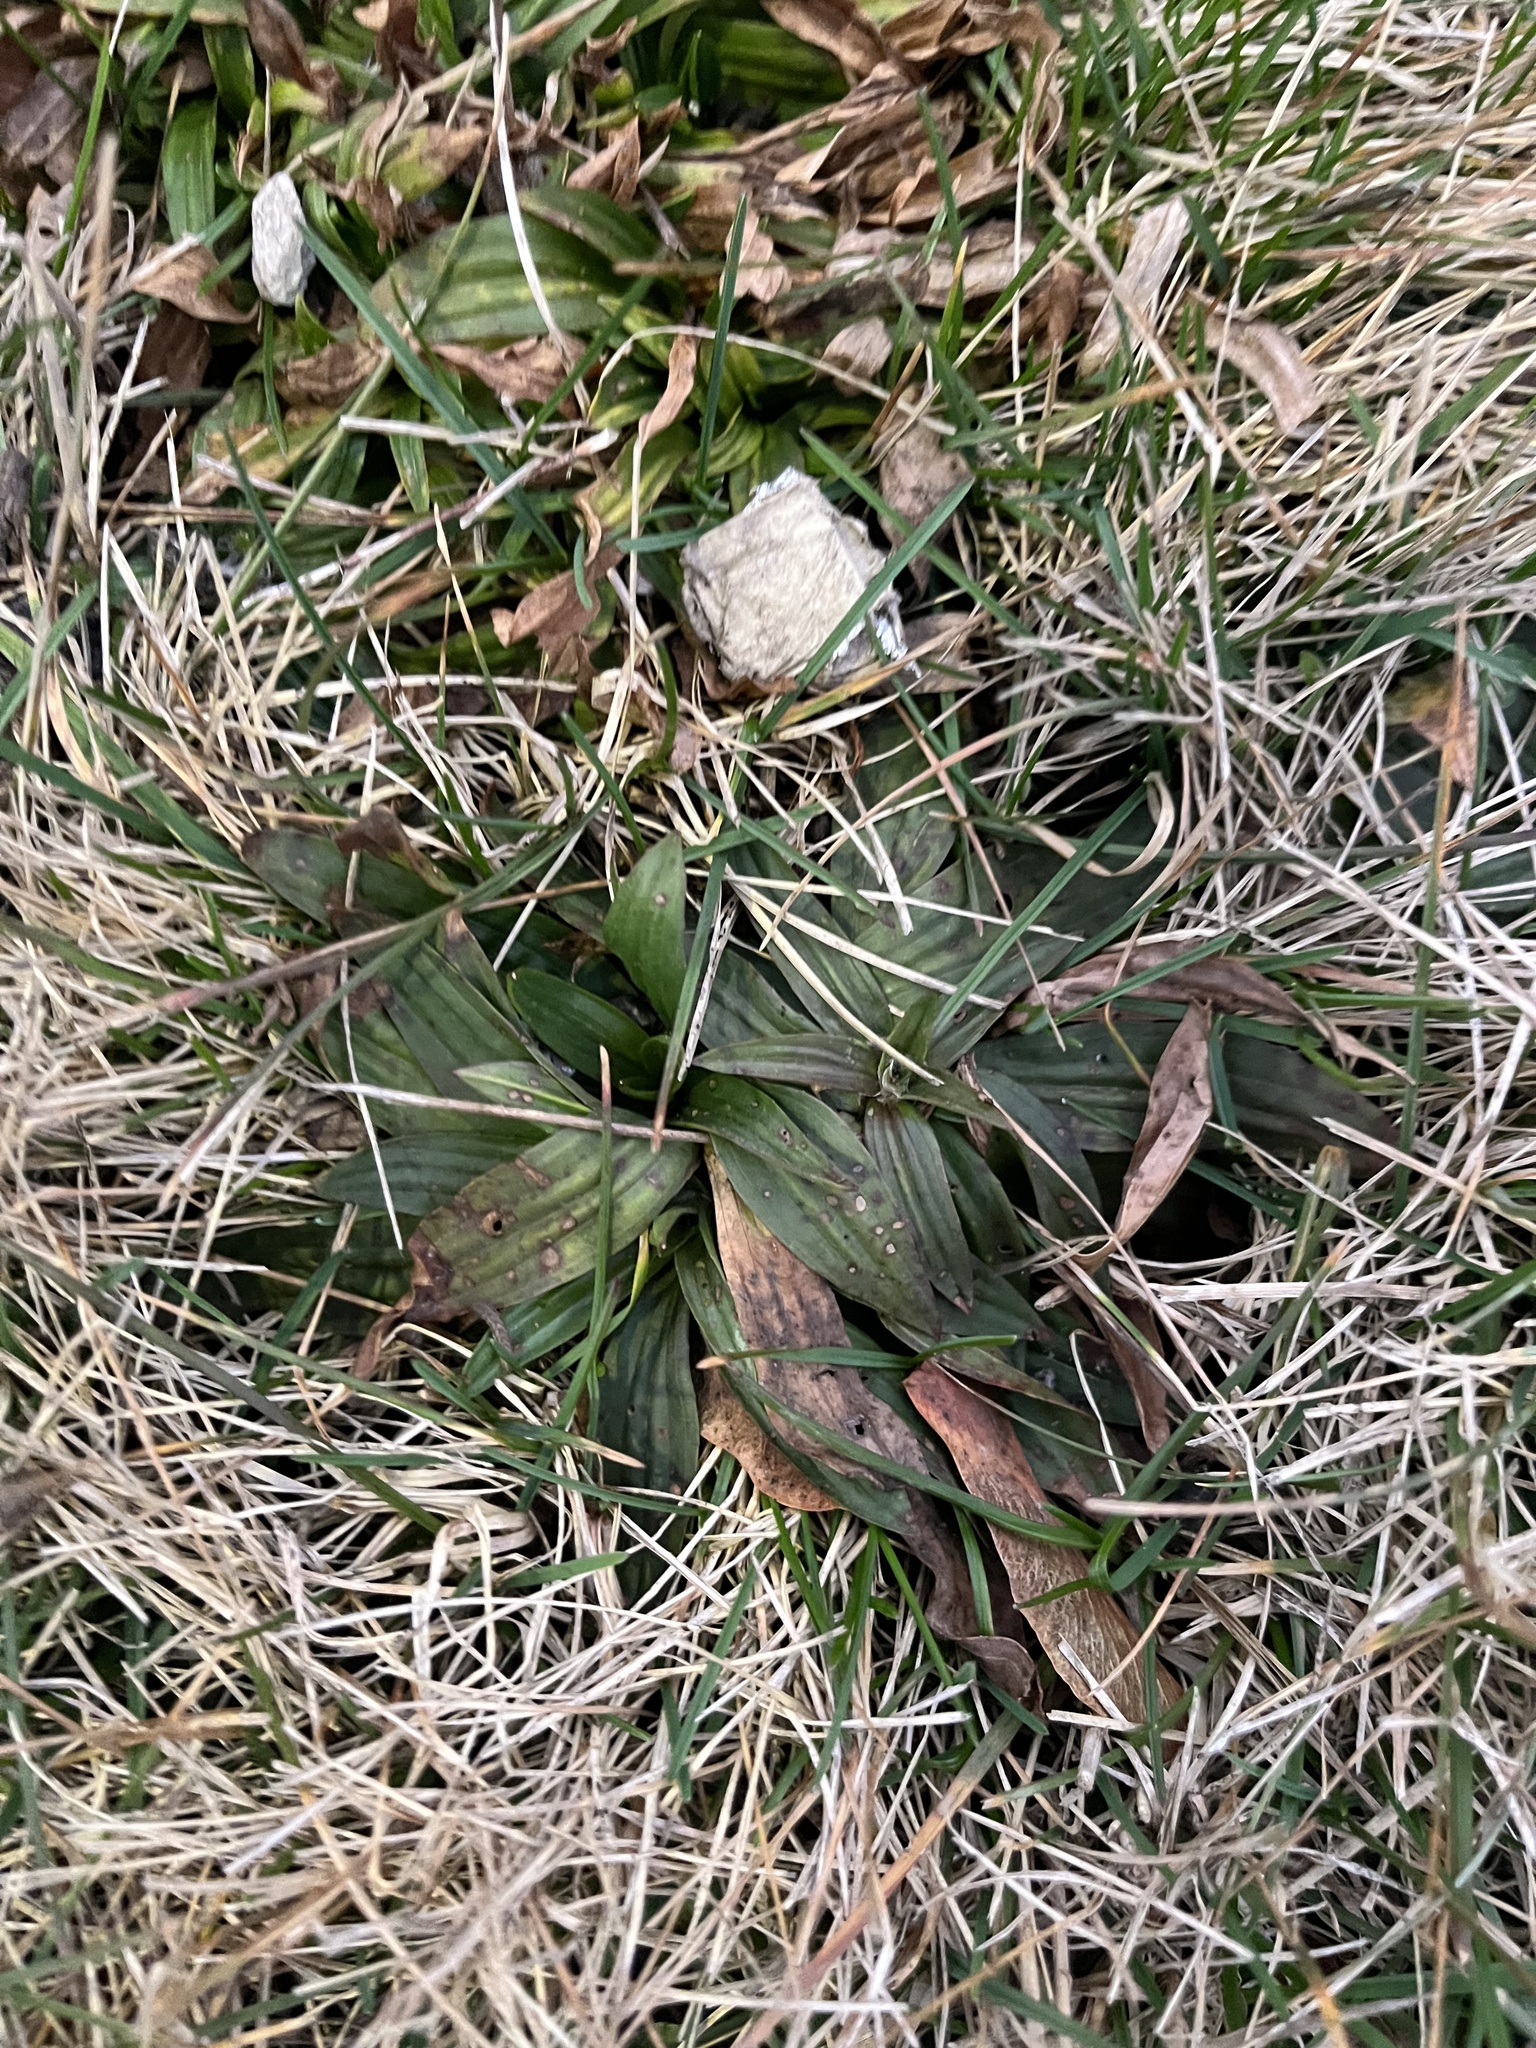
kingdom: Plantae
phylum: Tracheophyta
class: Magnoliopsida
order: Lamiales
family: Plantaginaceae
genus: Plantago
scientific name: Plantago lanceolata
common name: Ribwort plantain
